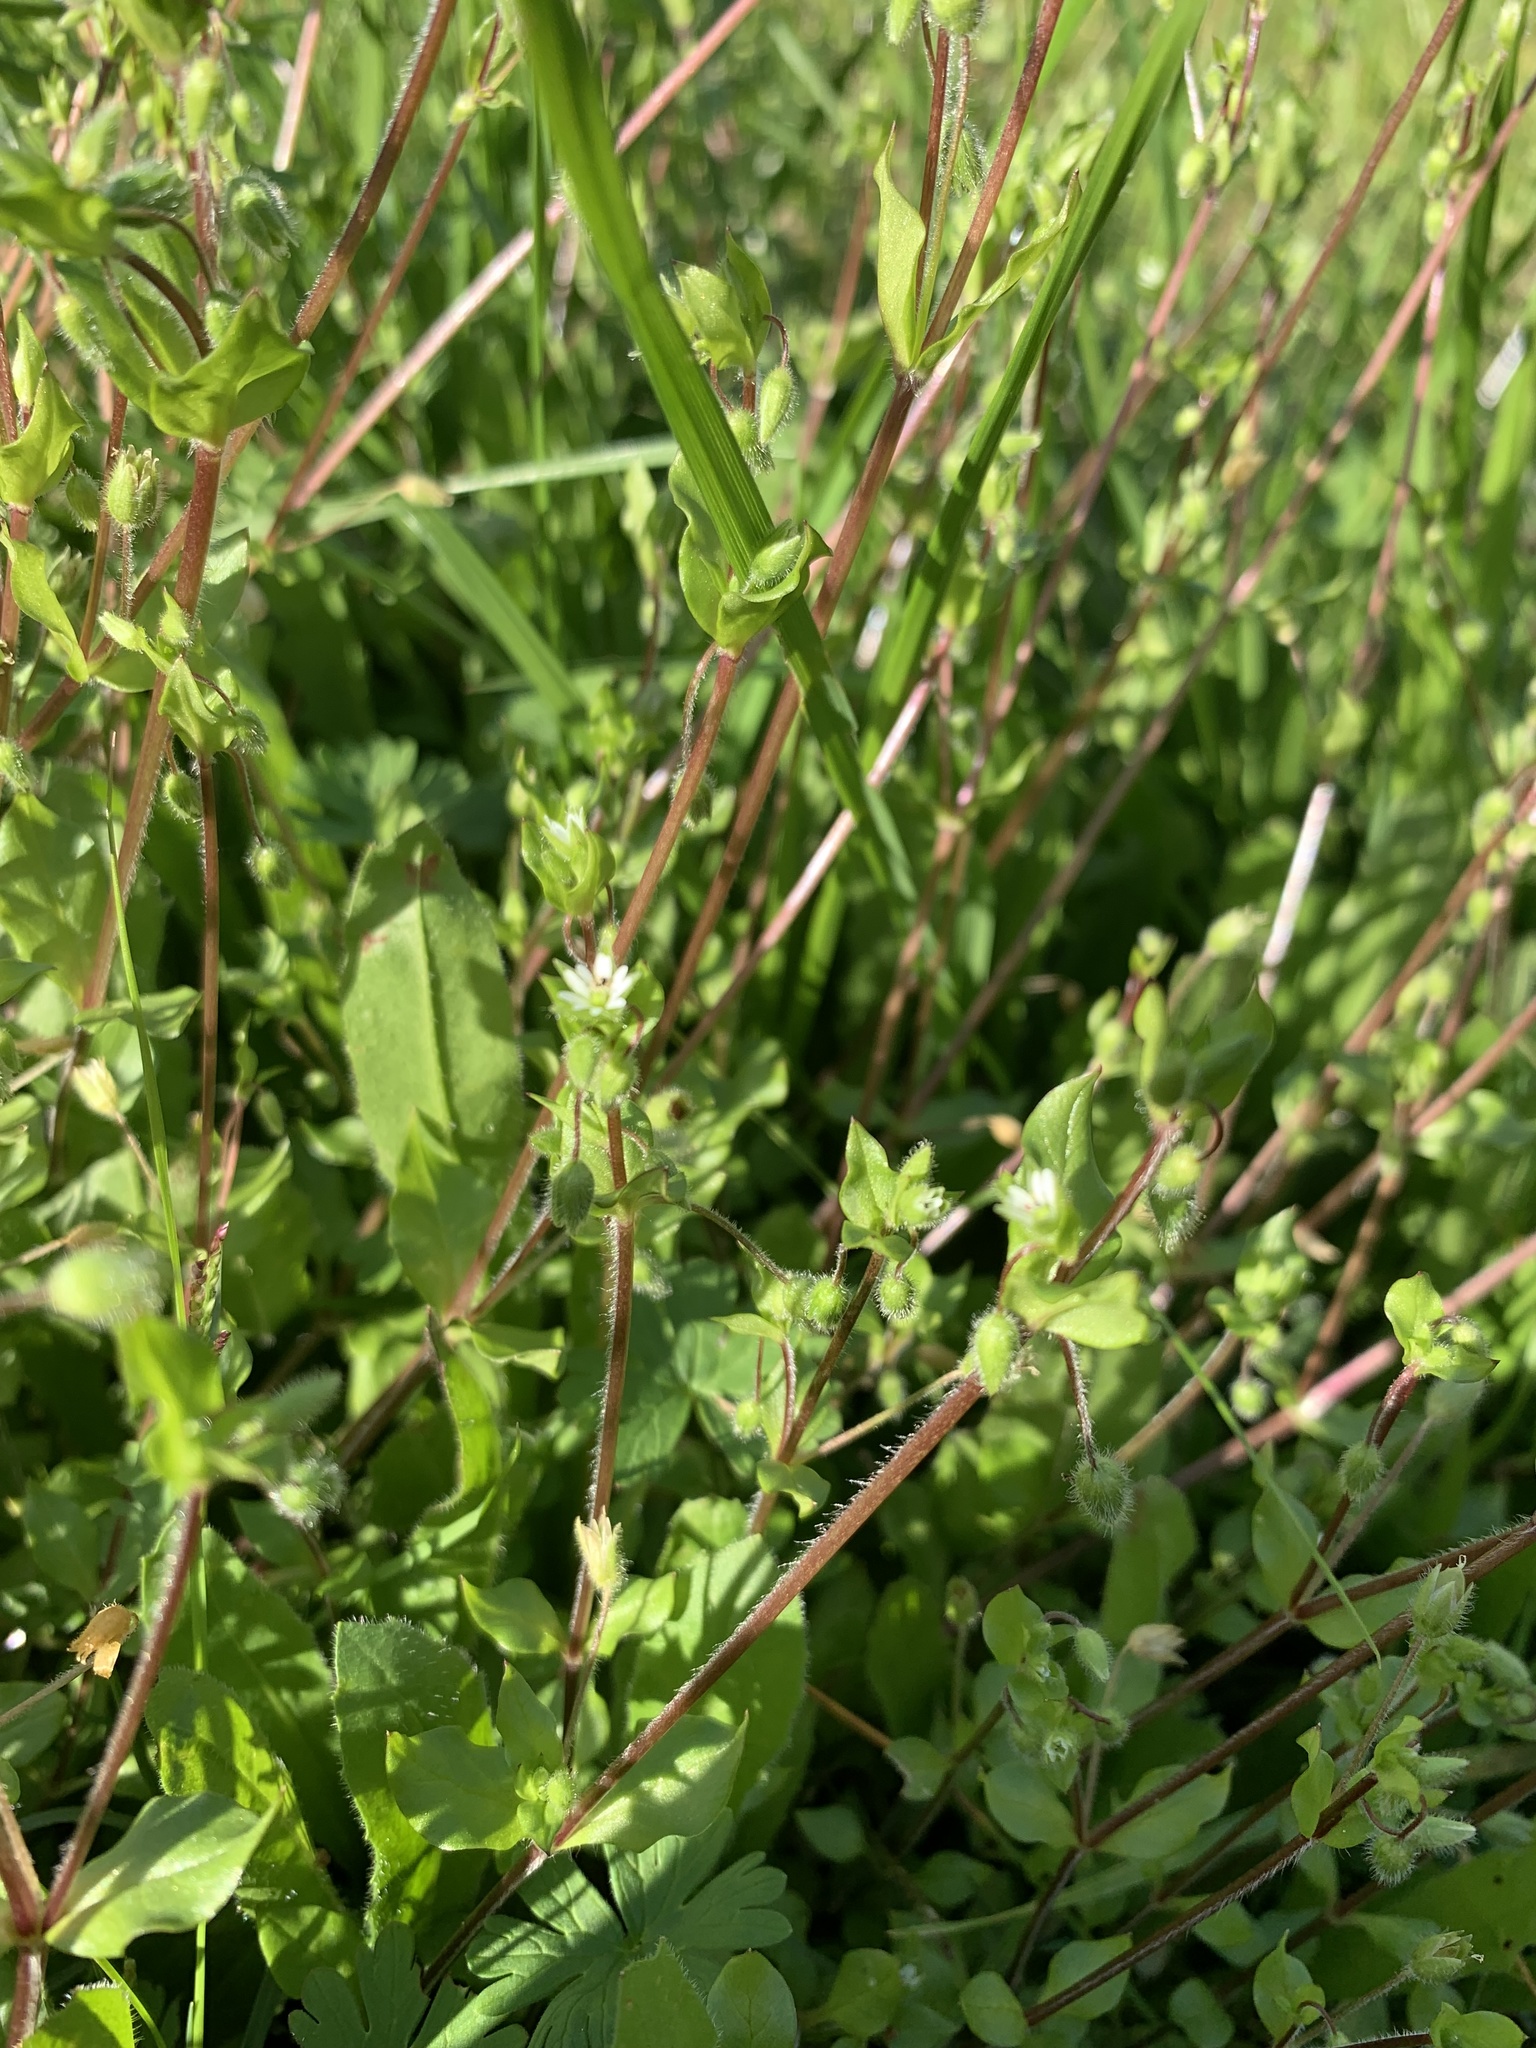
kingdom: Plantae
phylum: Tracheophyta
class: Magnoliopsida
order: Caryophyllales
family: Caryophyllaceae
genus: Stellaria
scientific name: Stellaria media
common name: Common chickweed
